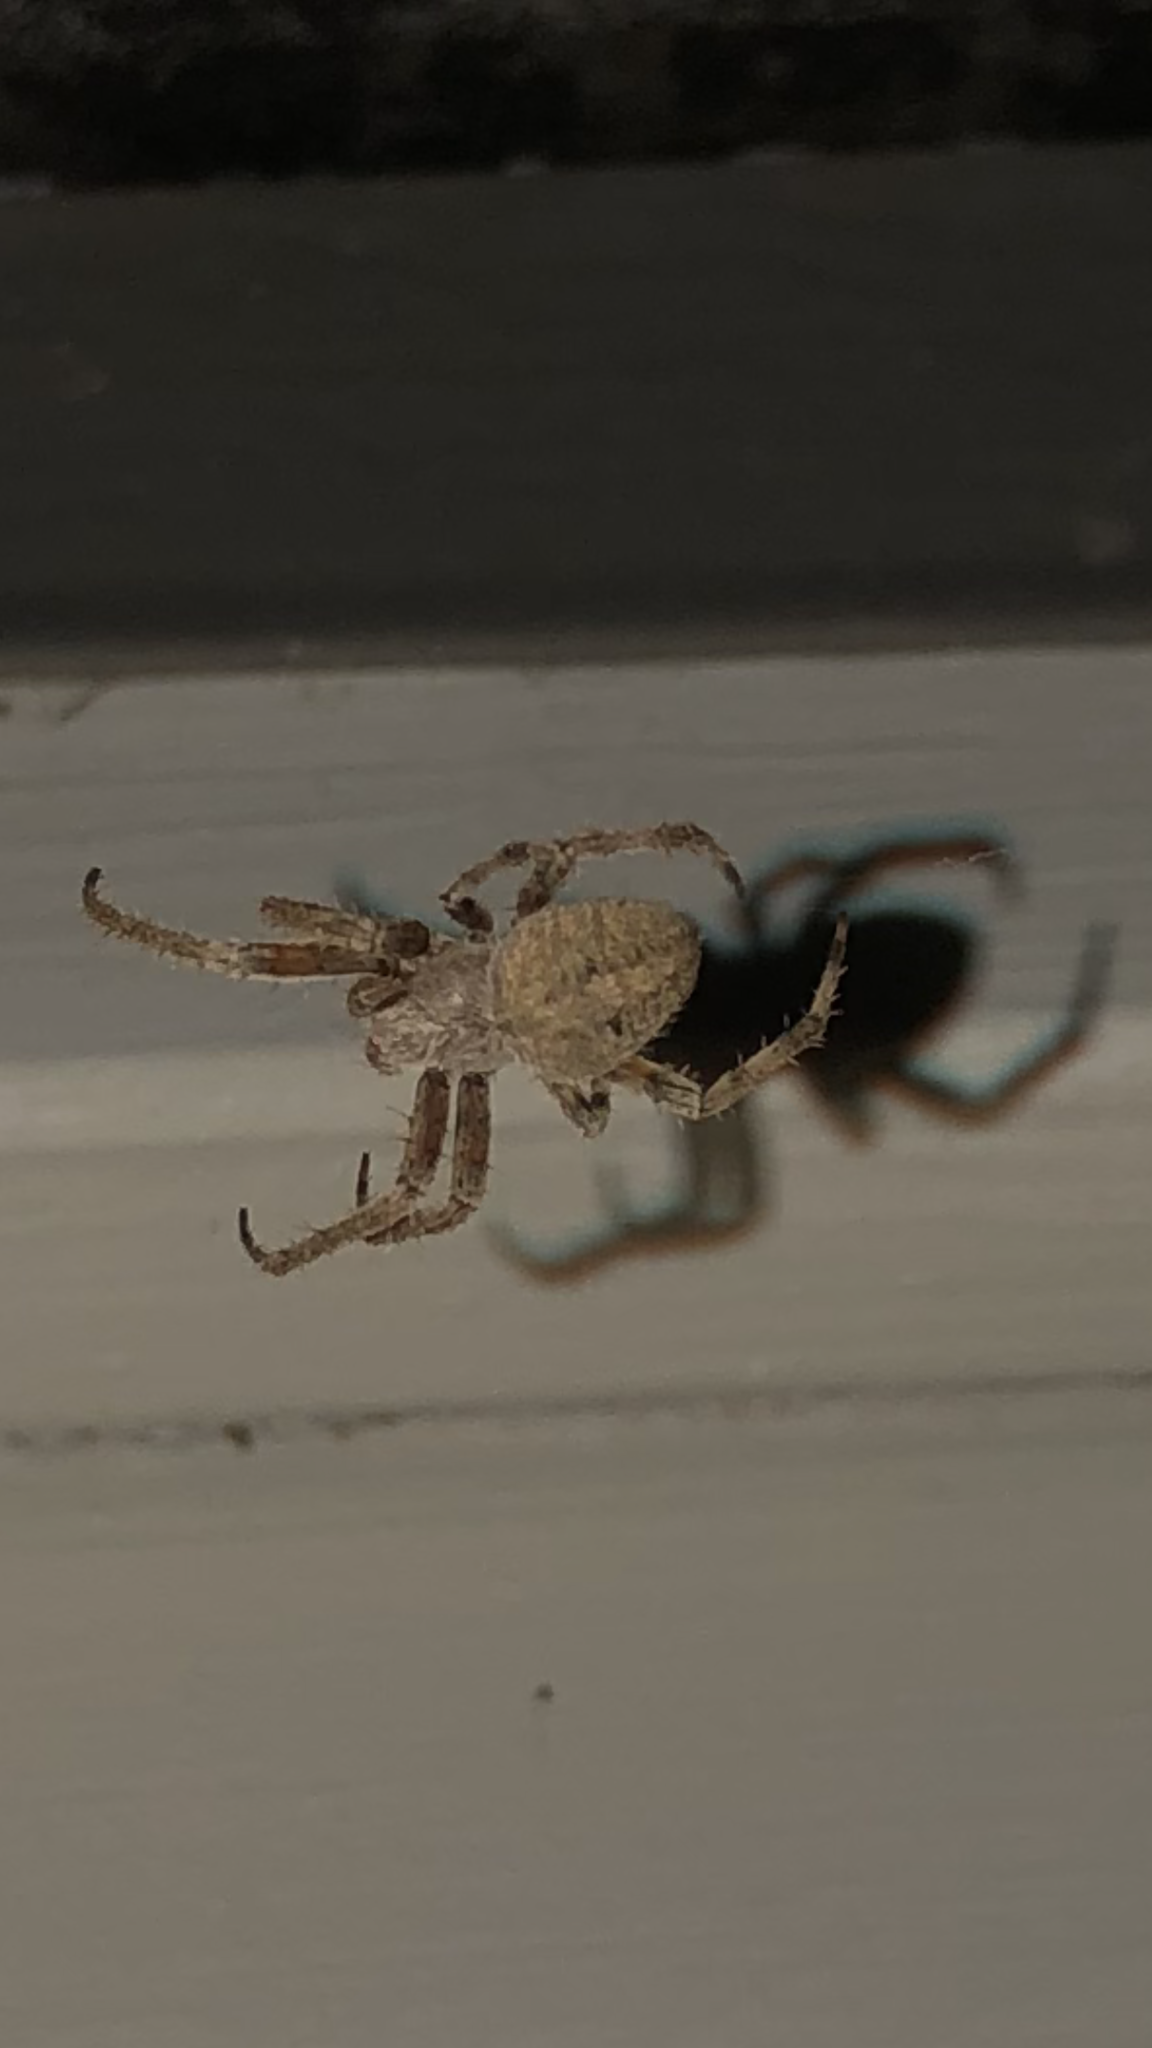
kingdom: Animalia
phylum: Arthropoda
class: Arachnida
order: Araneae
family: Araneidae
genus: Neoscona
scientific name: Neoscona crucifera
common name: Spotted orbweaver
